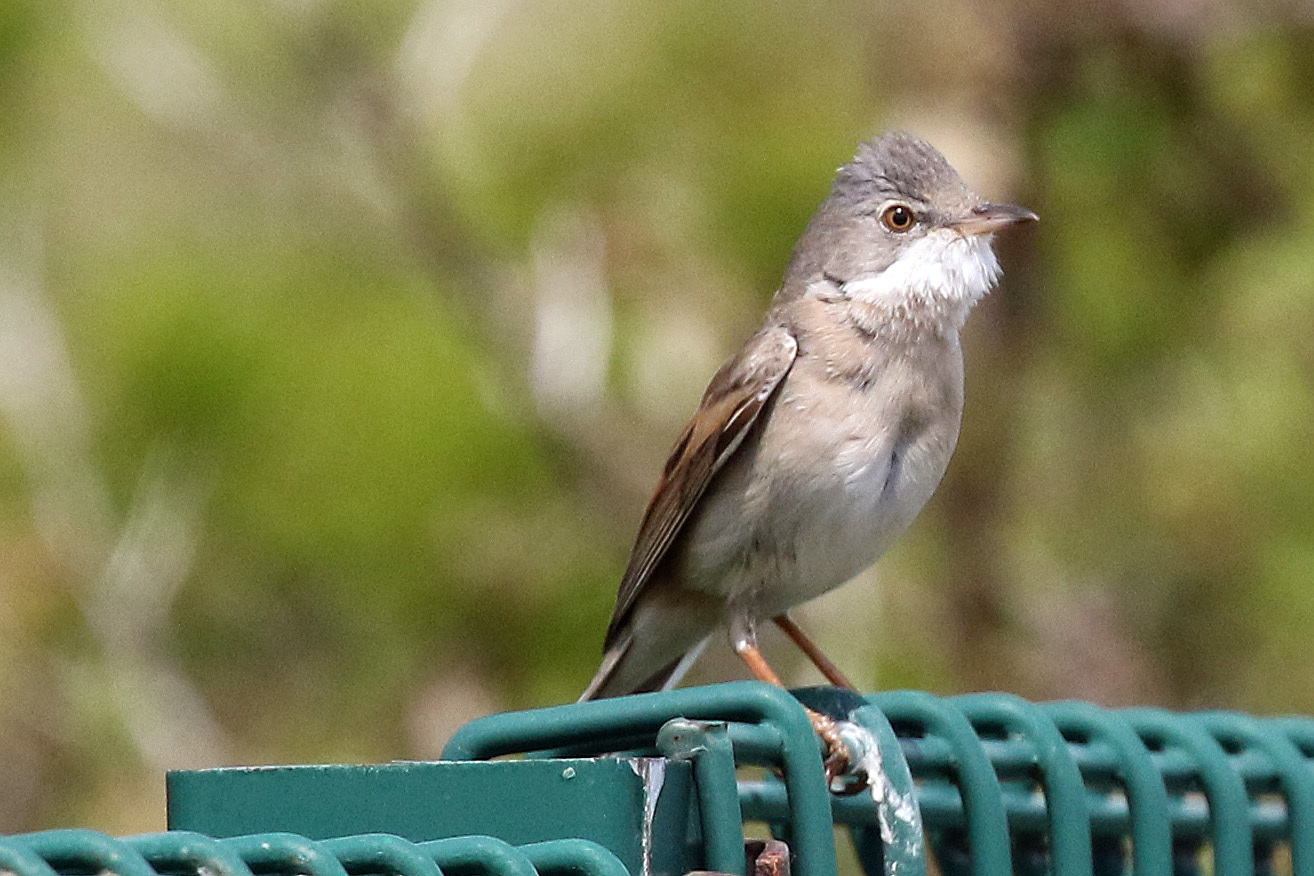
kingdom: Animalia
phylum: Chordata
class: Aves
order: Passeriformes
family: Sylviidae
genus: Sylvia
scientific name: Sylvia communis
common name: Common whitethroat
